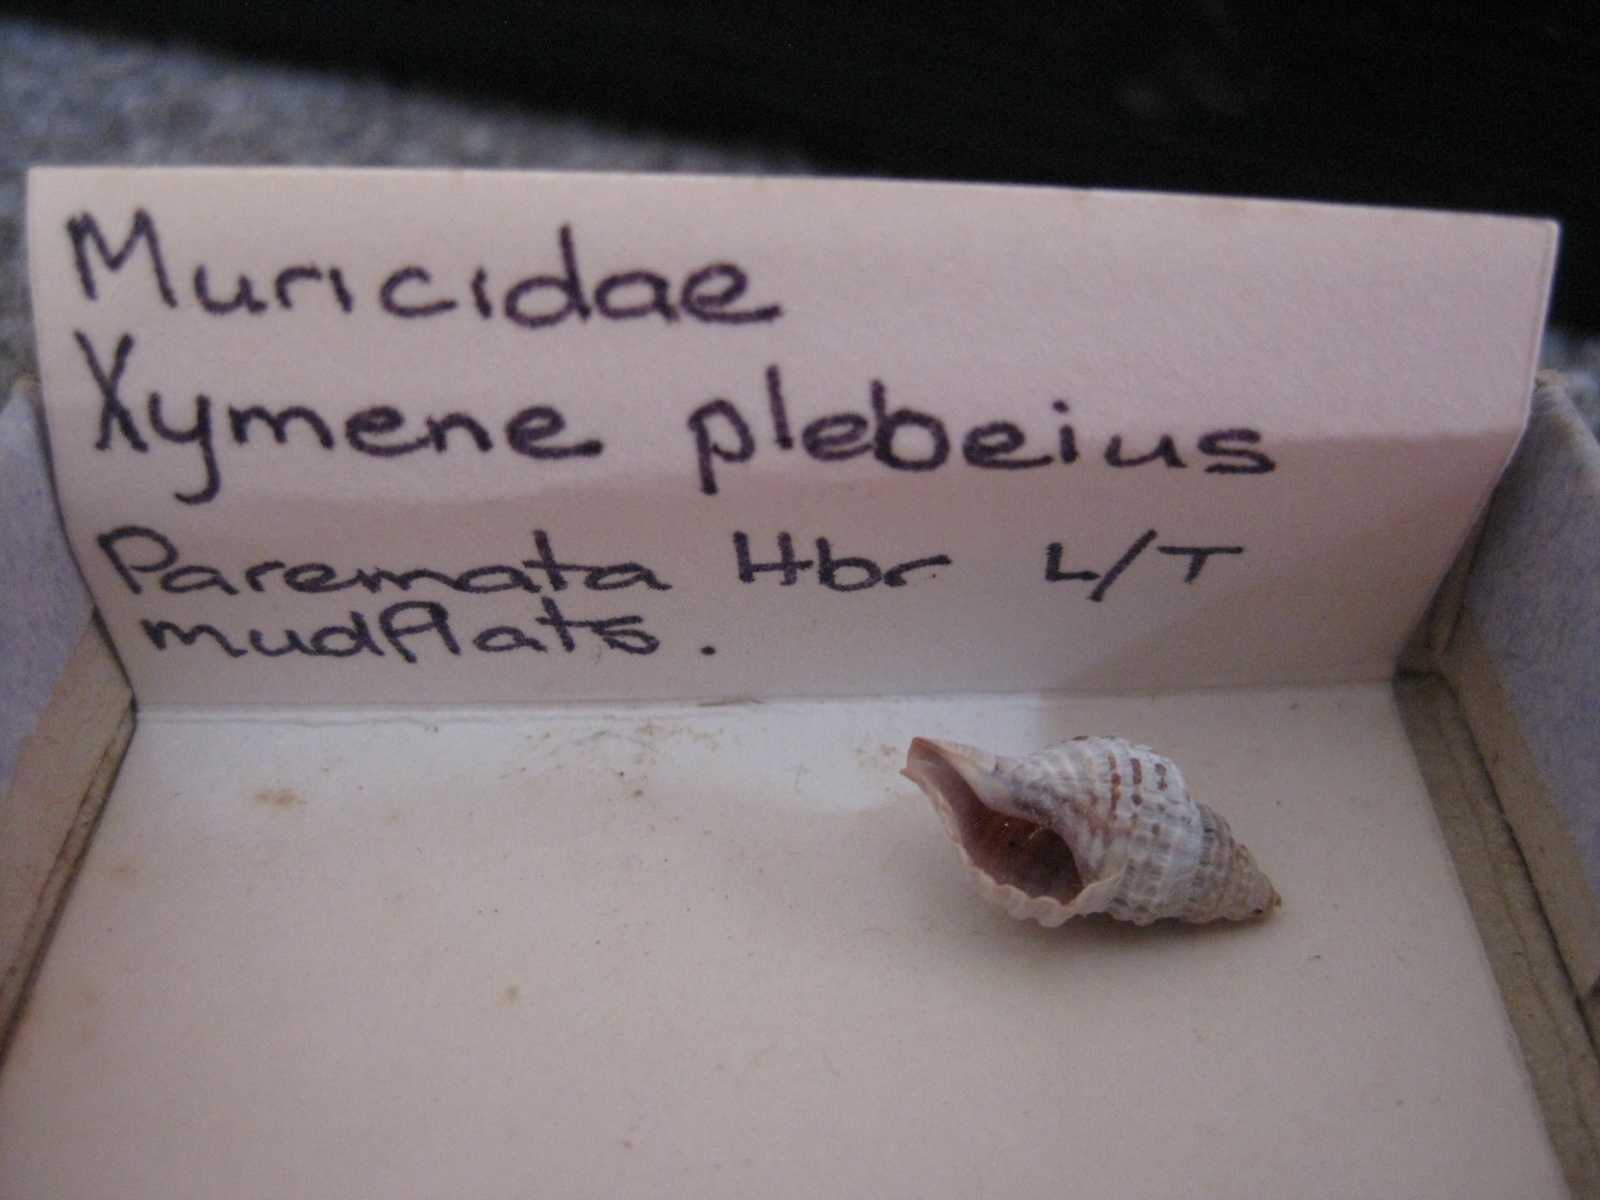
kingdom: Animalia
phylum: Mollusca
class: Gastropoda
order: Neogastropoda
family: Muricidae
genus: Xymene
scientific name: Xymene plebeius
